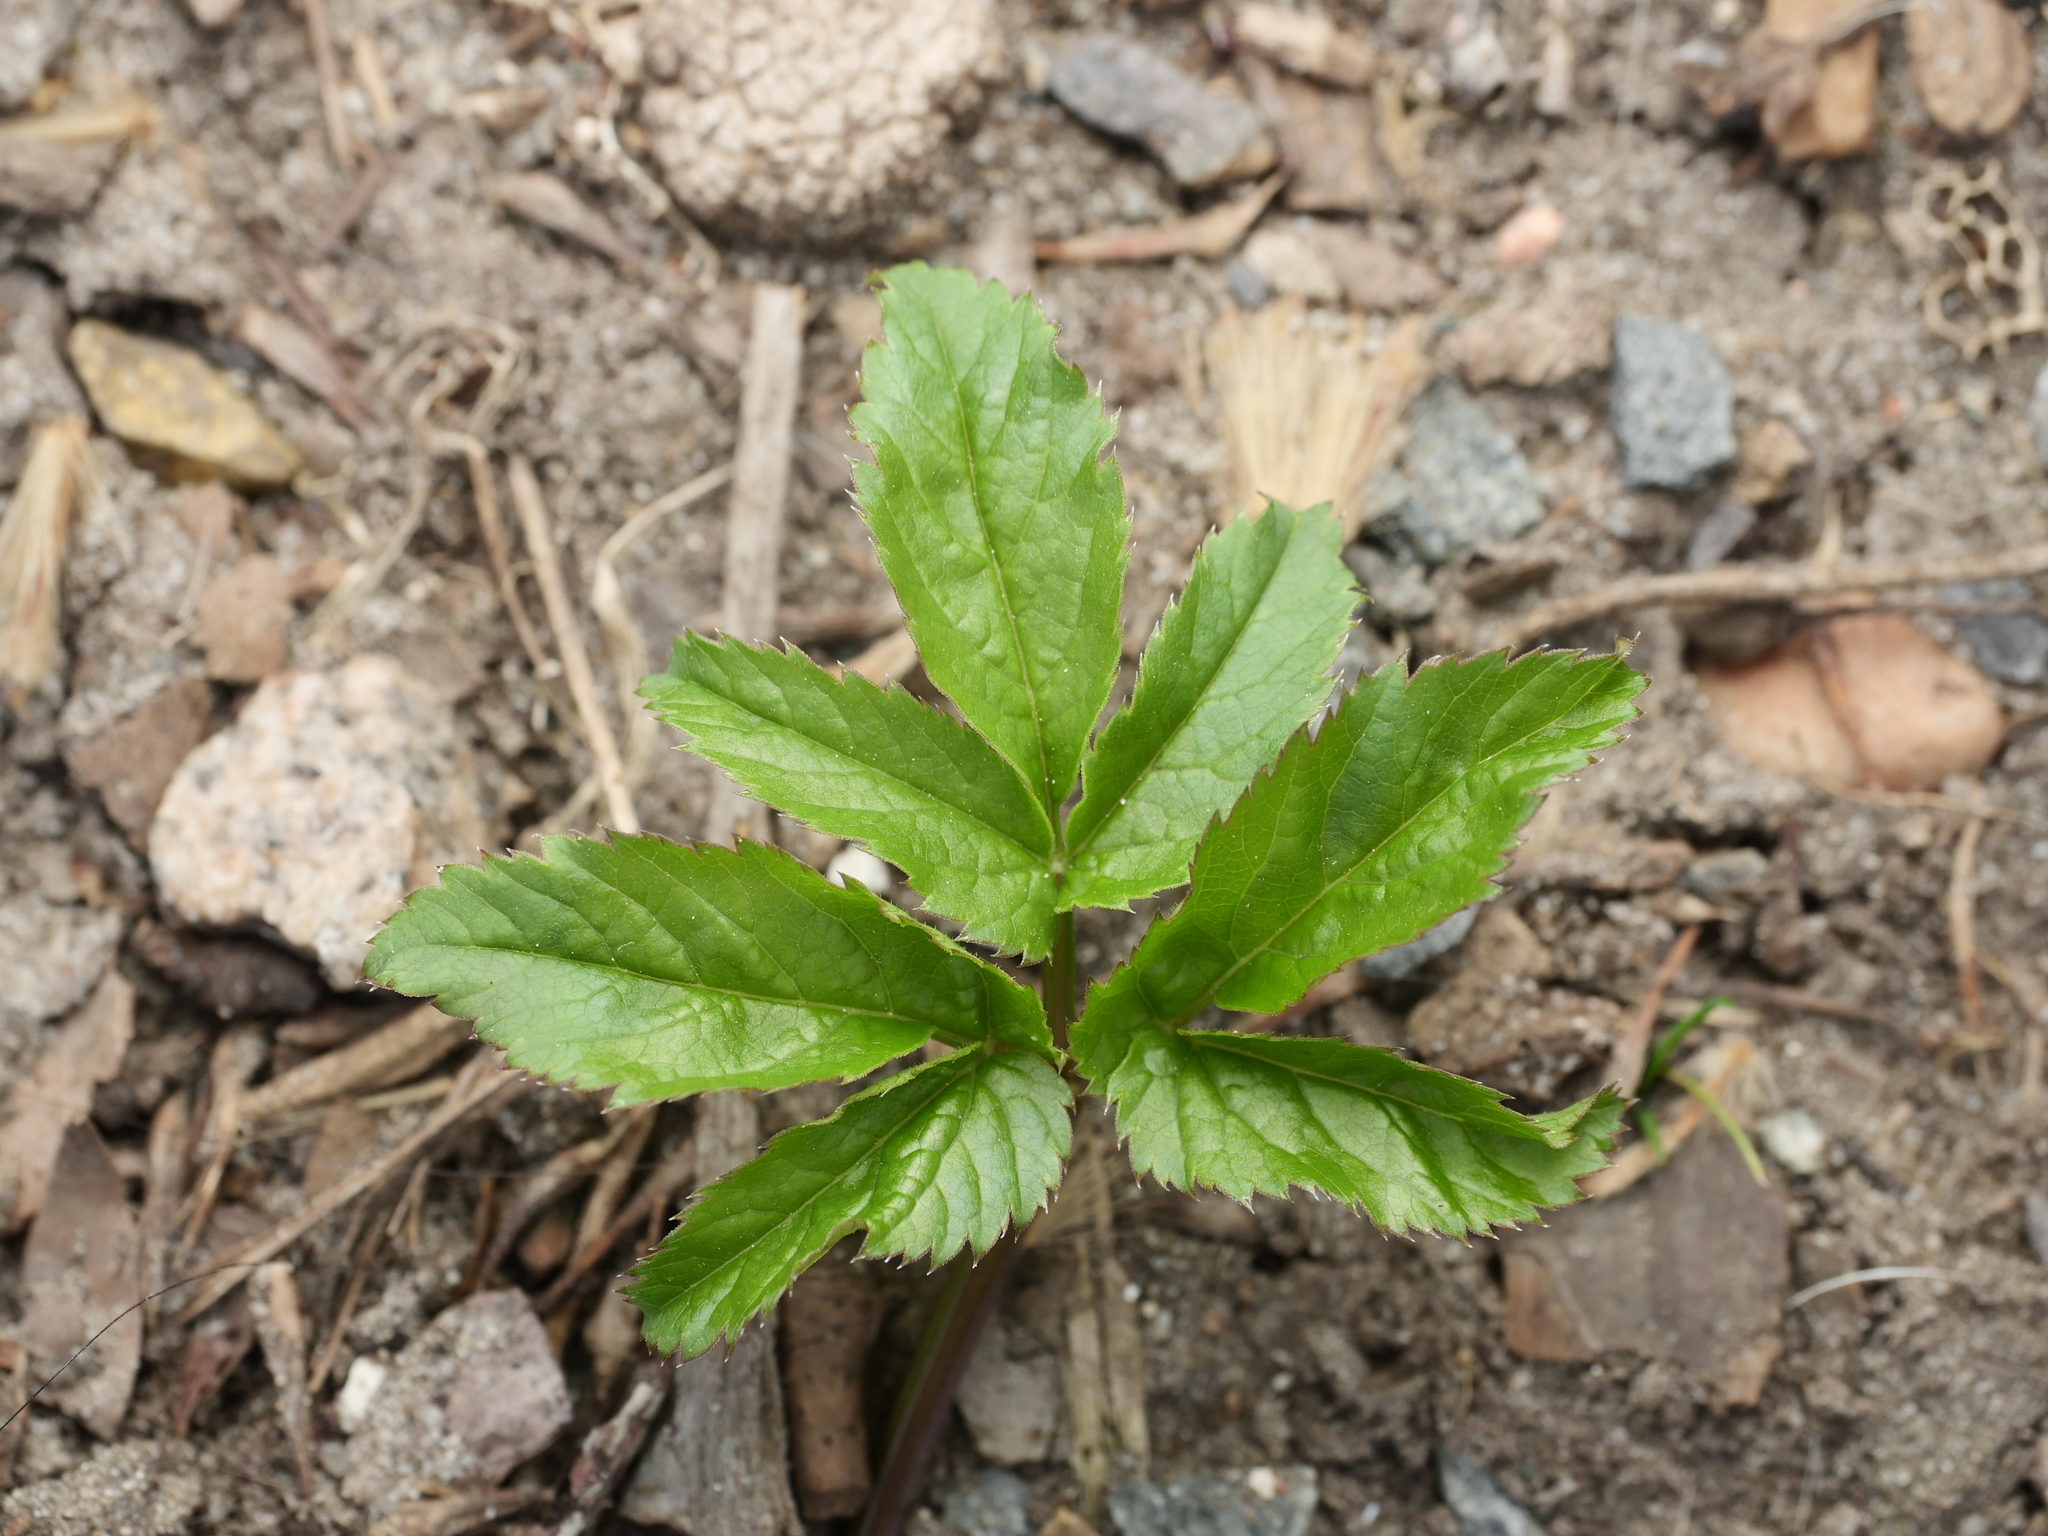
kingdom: Plantae
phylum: Tracheophyta
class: Magnoliopsida
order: Apiales
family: Apiaceae
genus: Aegopodium
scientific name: Aegopodium podagraria
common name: Ground-elder
